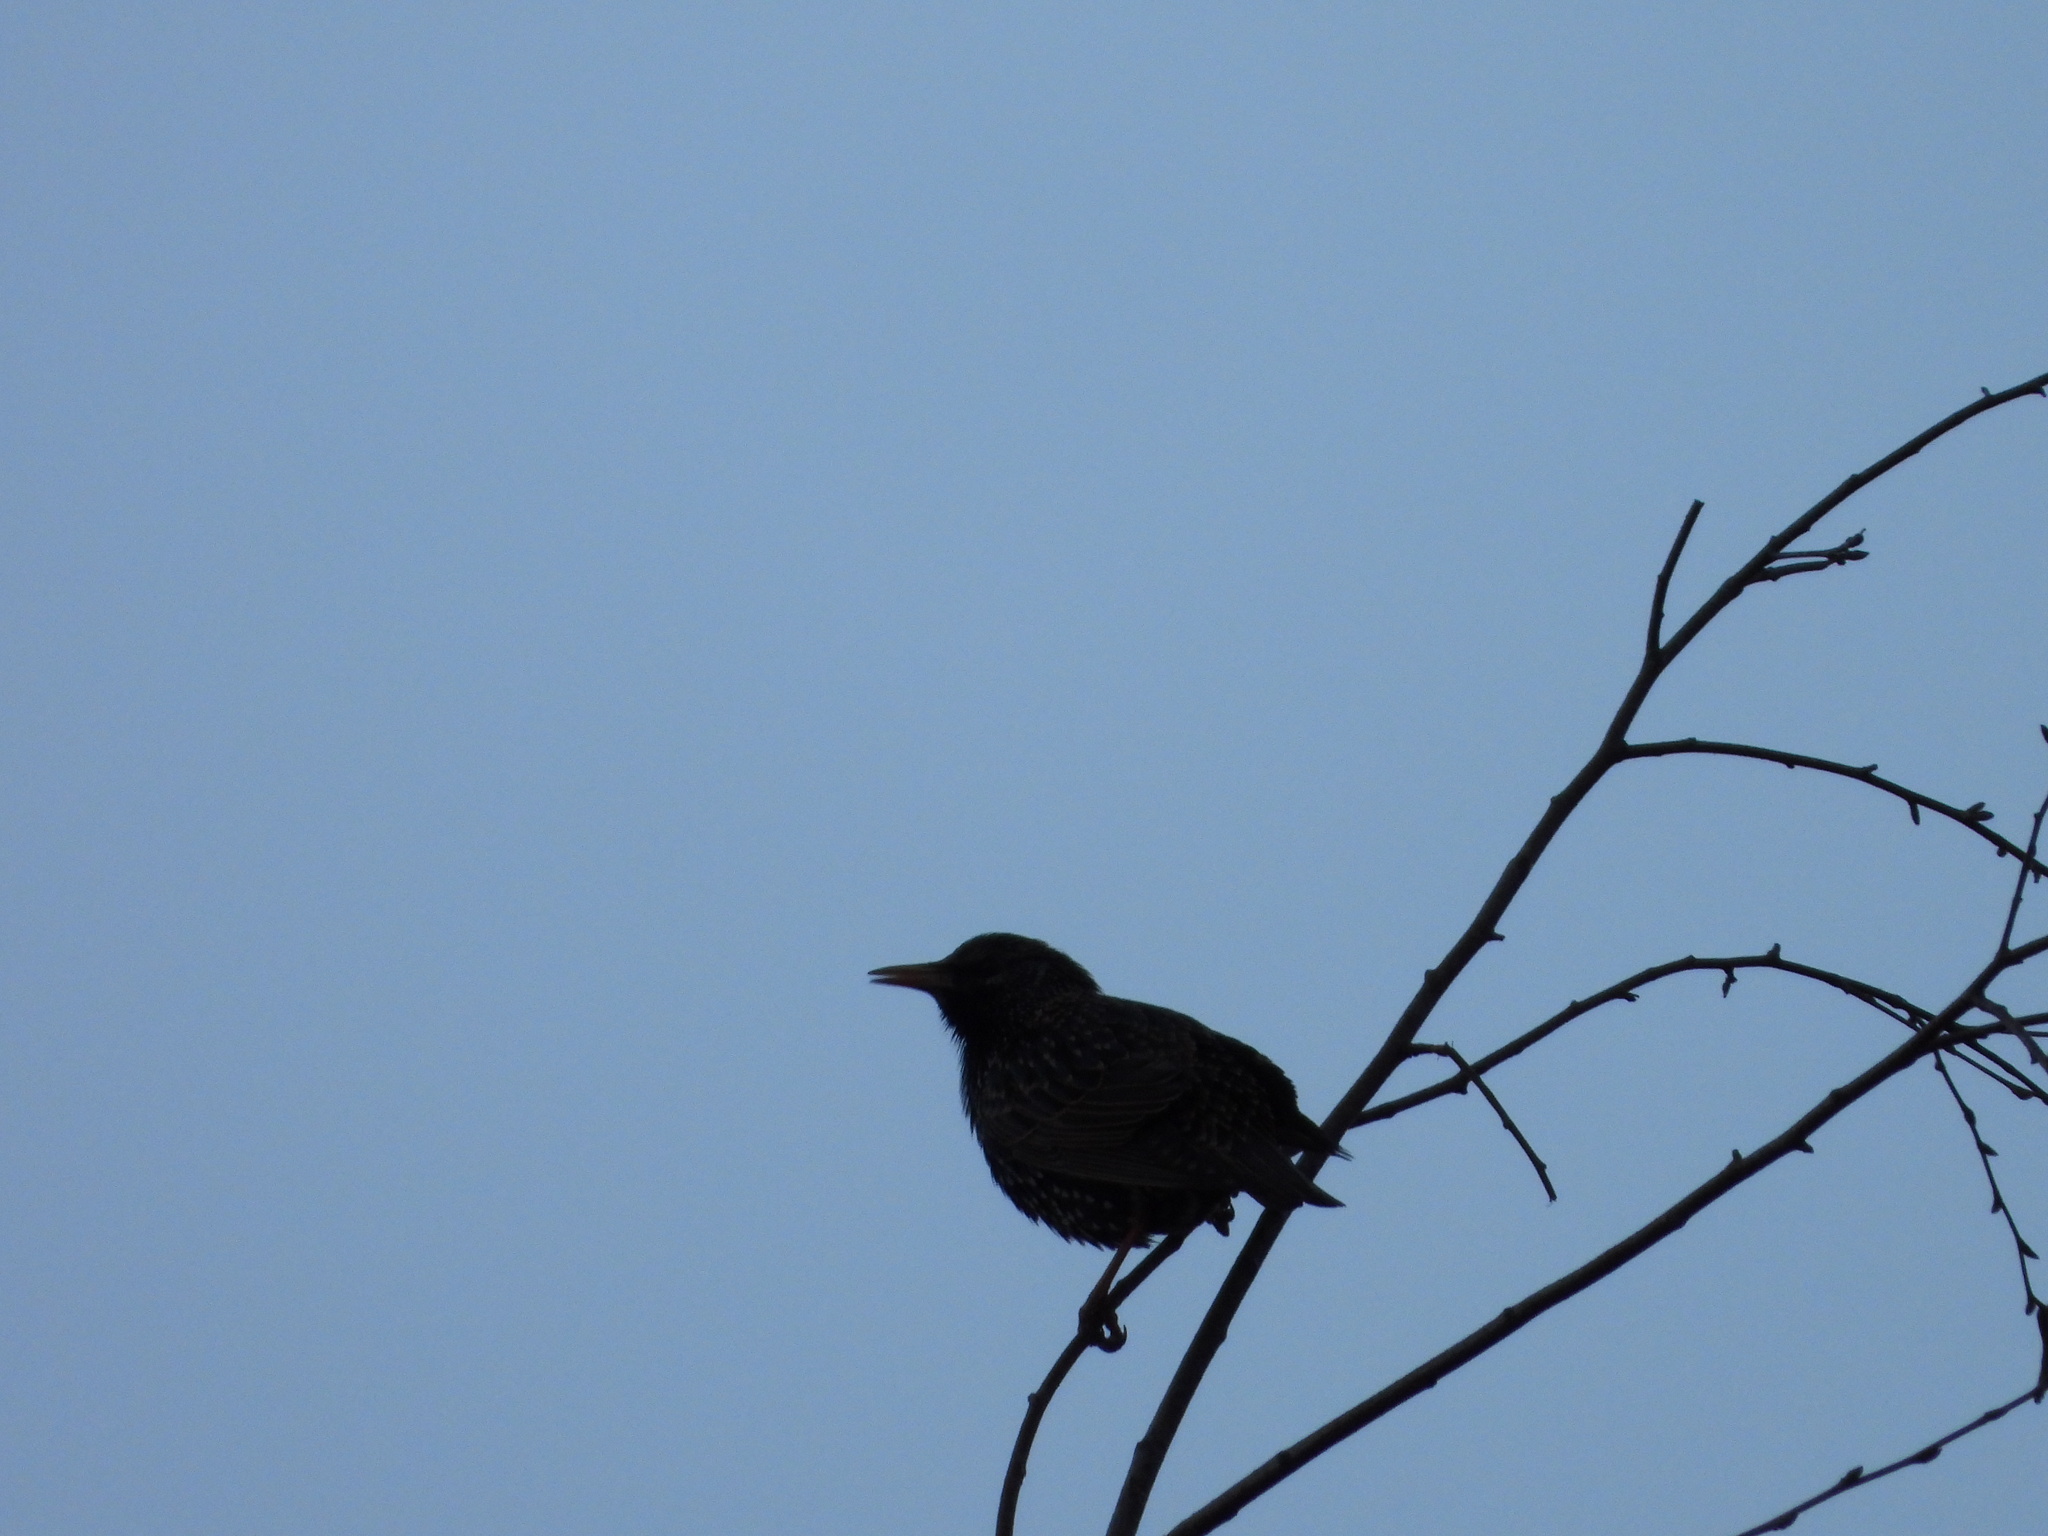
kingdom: Animalia
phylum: Chordata
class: Aves
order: Passeriformes
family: Sturnidae
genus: Sturnus
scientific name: Sturnus vulgaris
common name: Common starling
